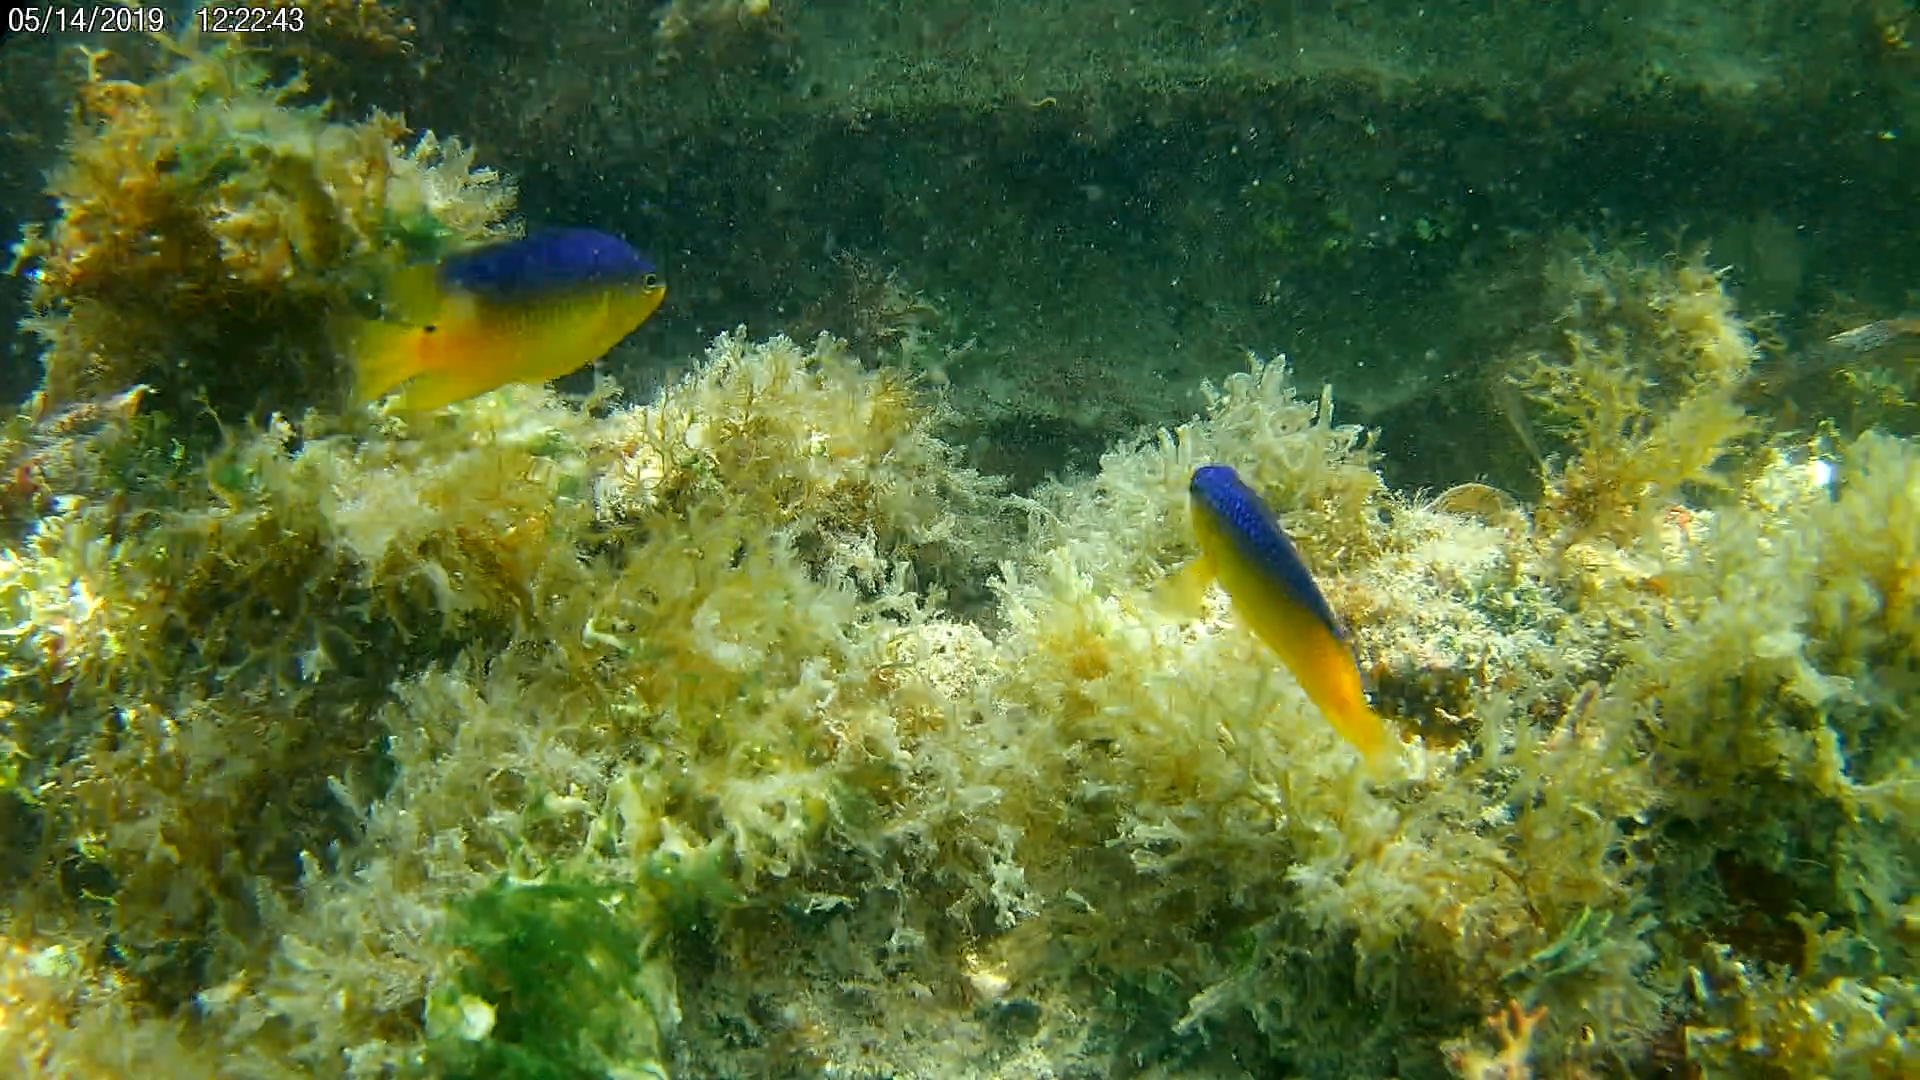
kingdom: Animalia
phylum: Chordata
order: Perciformes
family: Pomacentridae
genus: Stegastes
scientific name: Stegastes leucostictus
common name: Beaugregory
